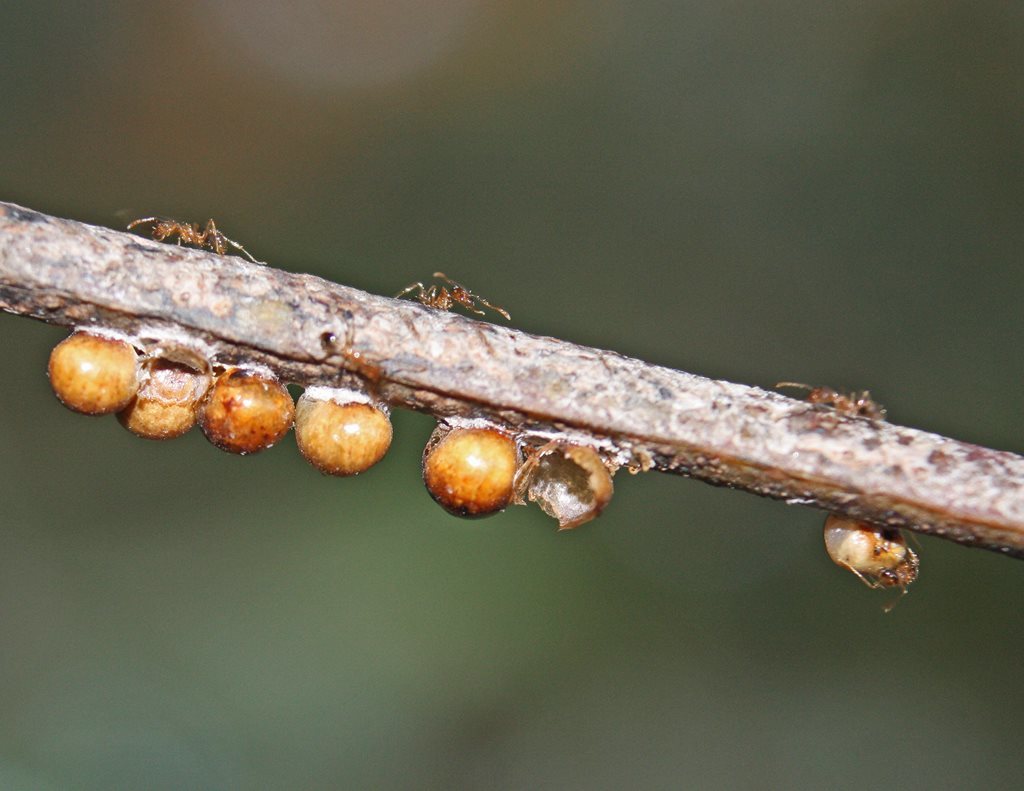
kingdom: Animalia
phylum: Arthropoda
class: Insecta
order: Hemiptera
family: Coccidae
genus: Cryptes
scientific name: Cryptes baccatus
